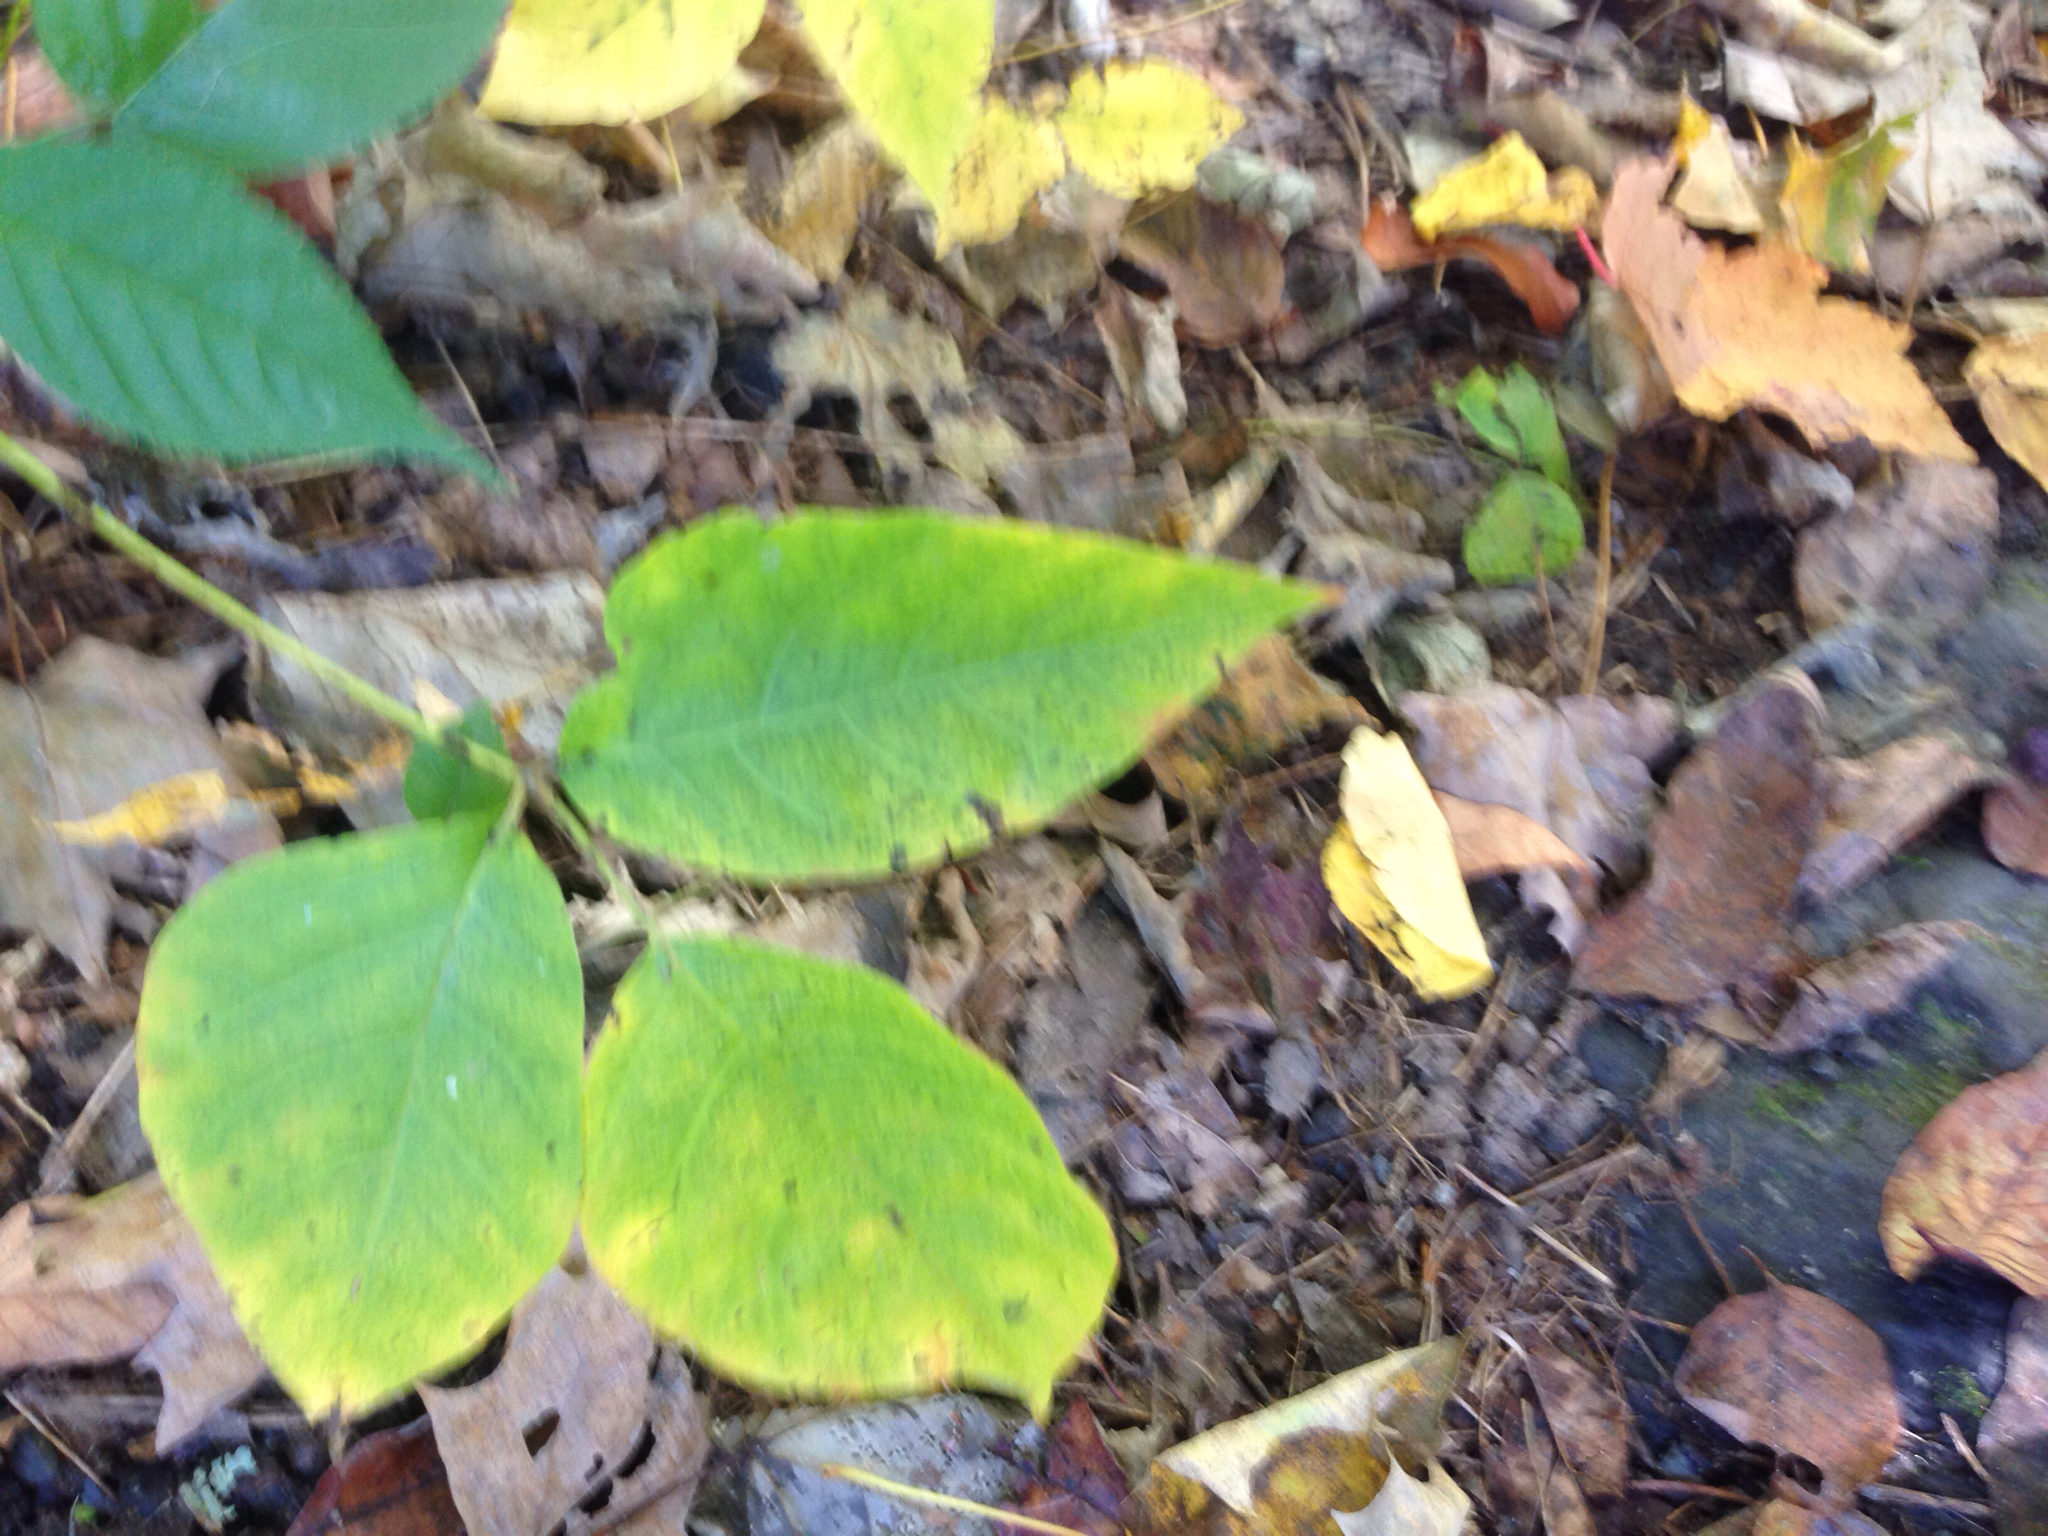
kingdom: Plantae
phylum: Tracheophyta
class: Magnoliopsida
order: Sapindales
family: Anacardiaceae
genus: Toxicodendron
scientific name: Toxicodendron radicans
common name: Poison ivy
